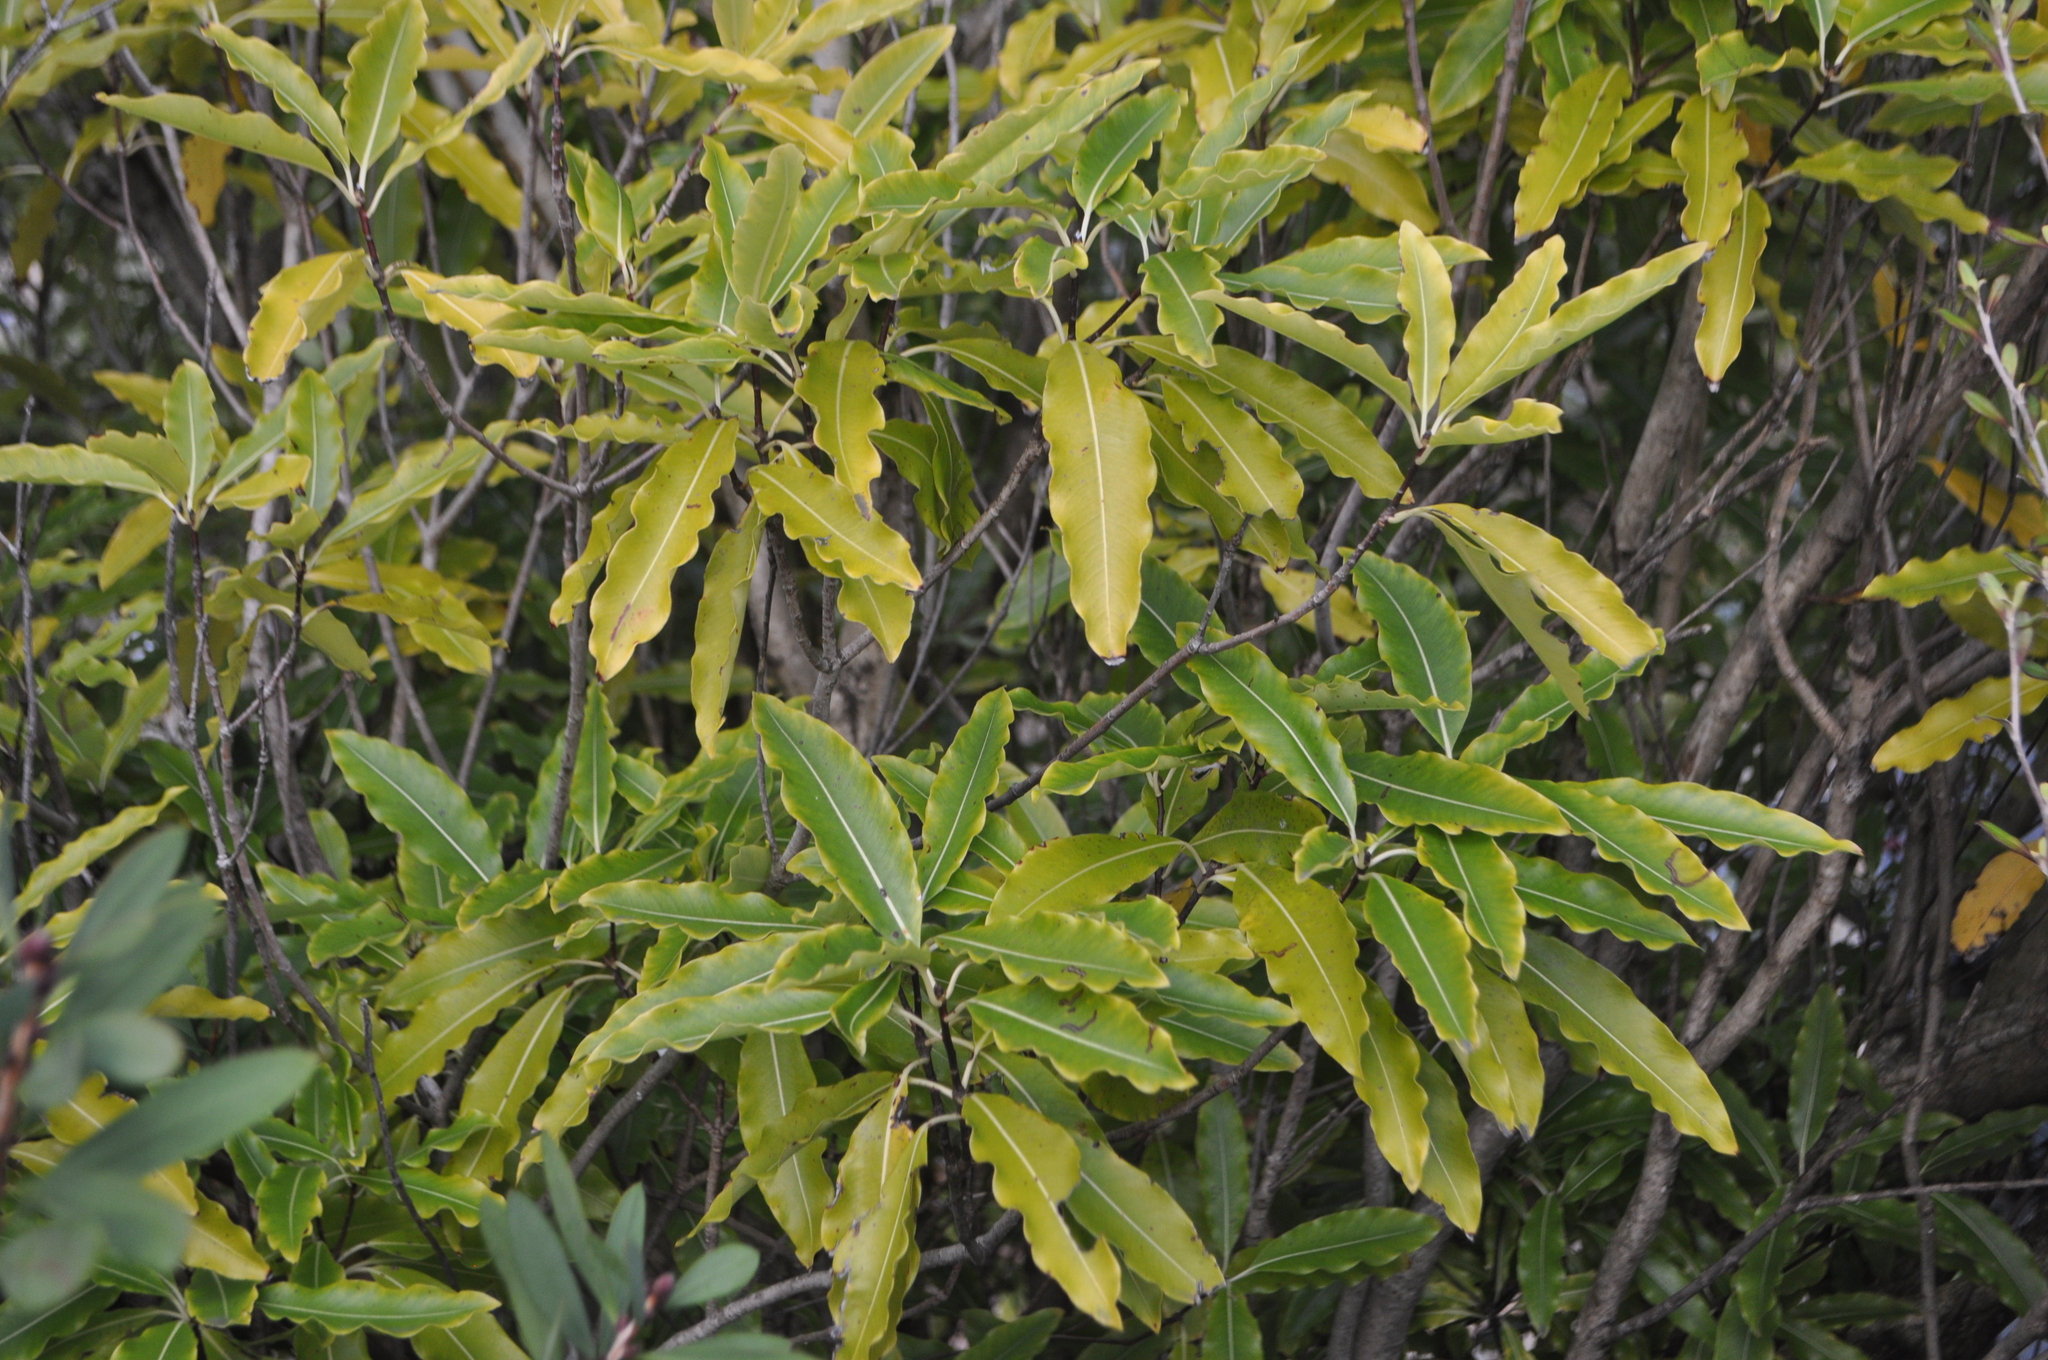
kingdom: Plantae
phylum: Tracheophyta
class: Magnoliopsida
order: Apiales
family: Pittosporaceae
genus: Pittosporum
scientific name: Pittosporum eugenioides
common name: Lemonwood
